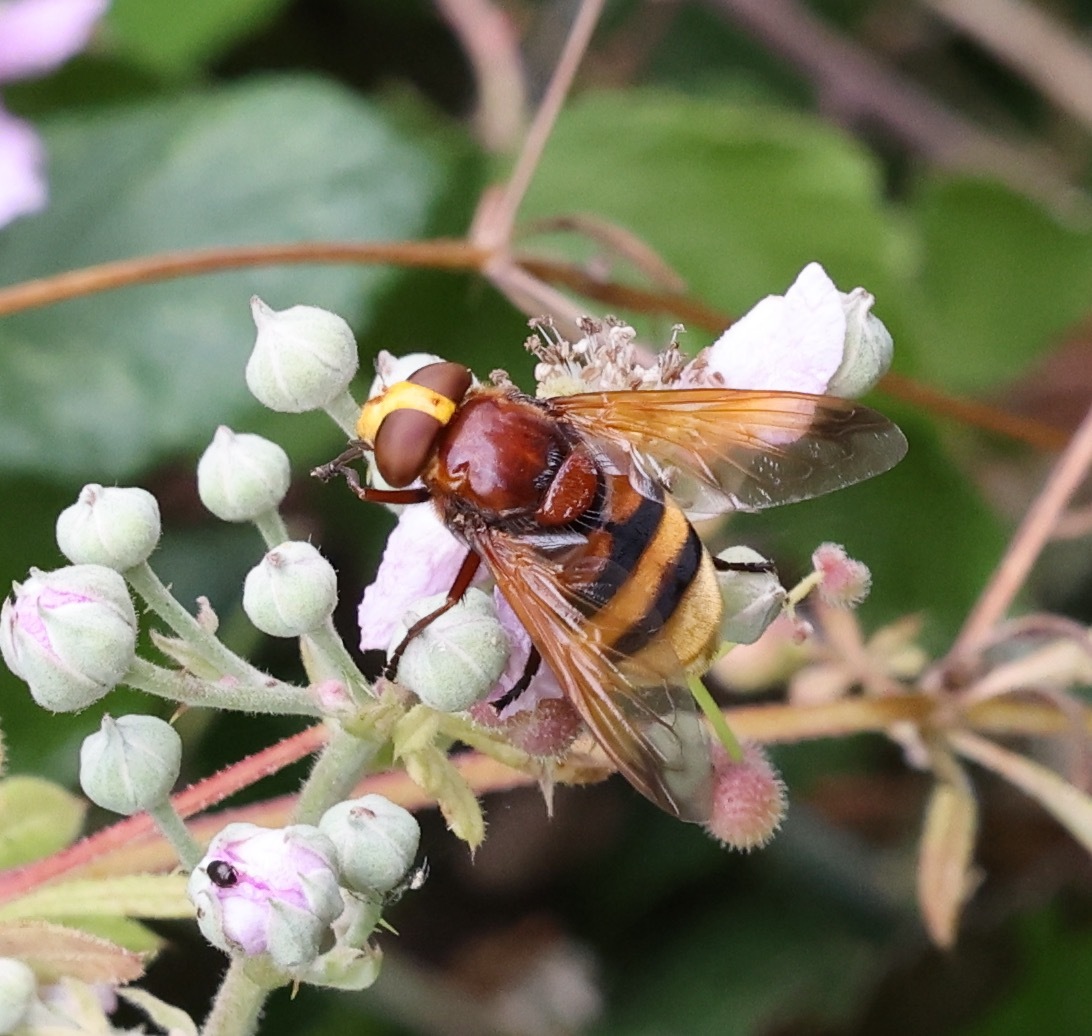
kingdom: Animalia
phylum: Arthropoda
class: Insecta
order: Diptera
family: Syrphidae
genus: Volucella
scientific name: Volucella zonaria
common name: Hornet hoverfly
